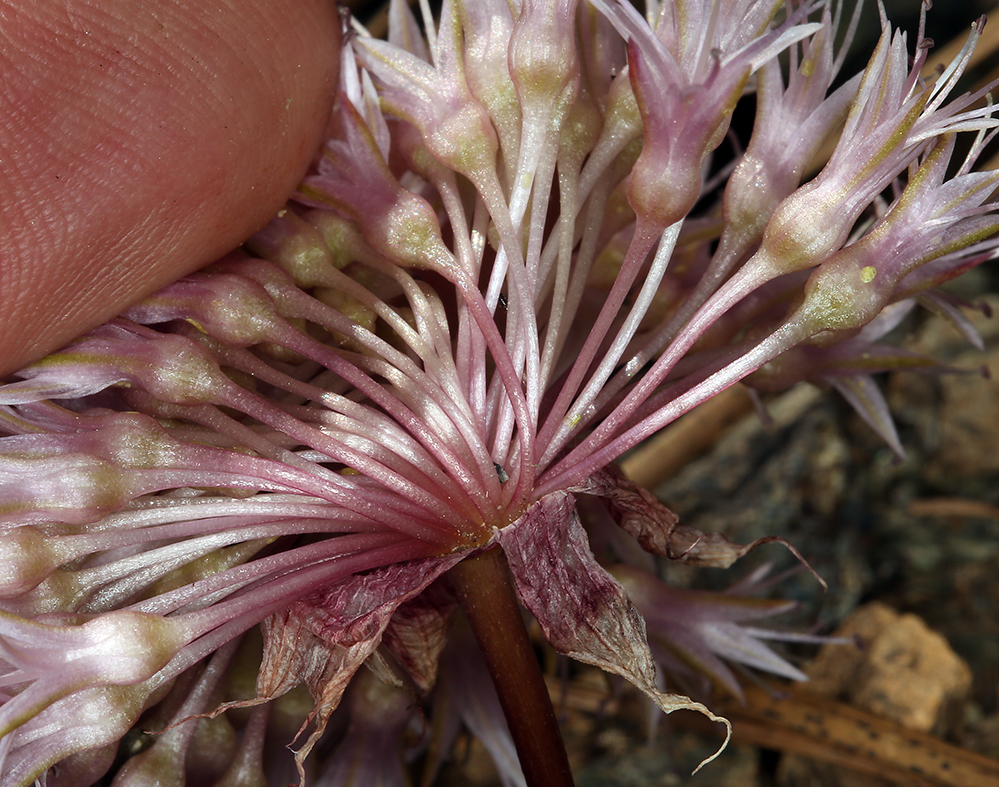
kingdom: Plantae
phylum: Tracheophyta
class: Liliopsida
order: Asparagales
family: Amaryllidaceae
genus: Allium
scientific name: Allium hoffmanii
